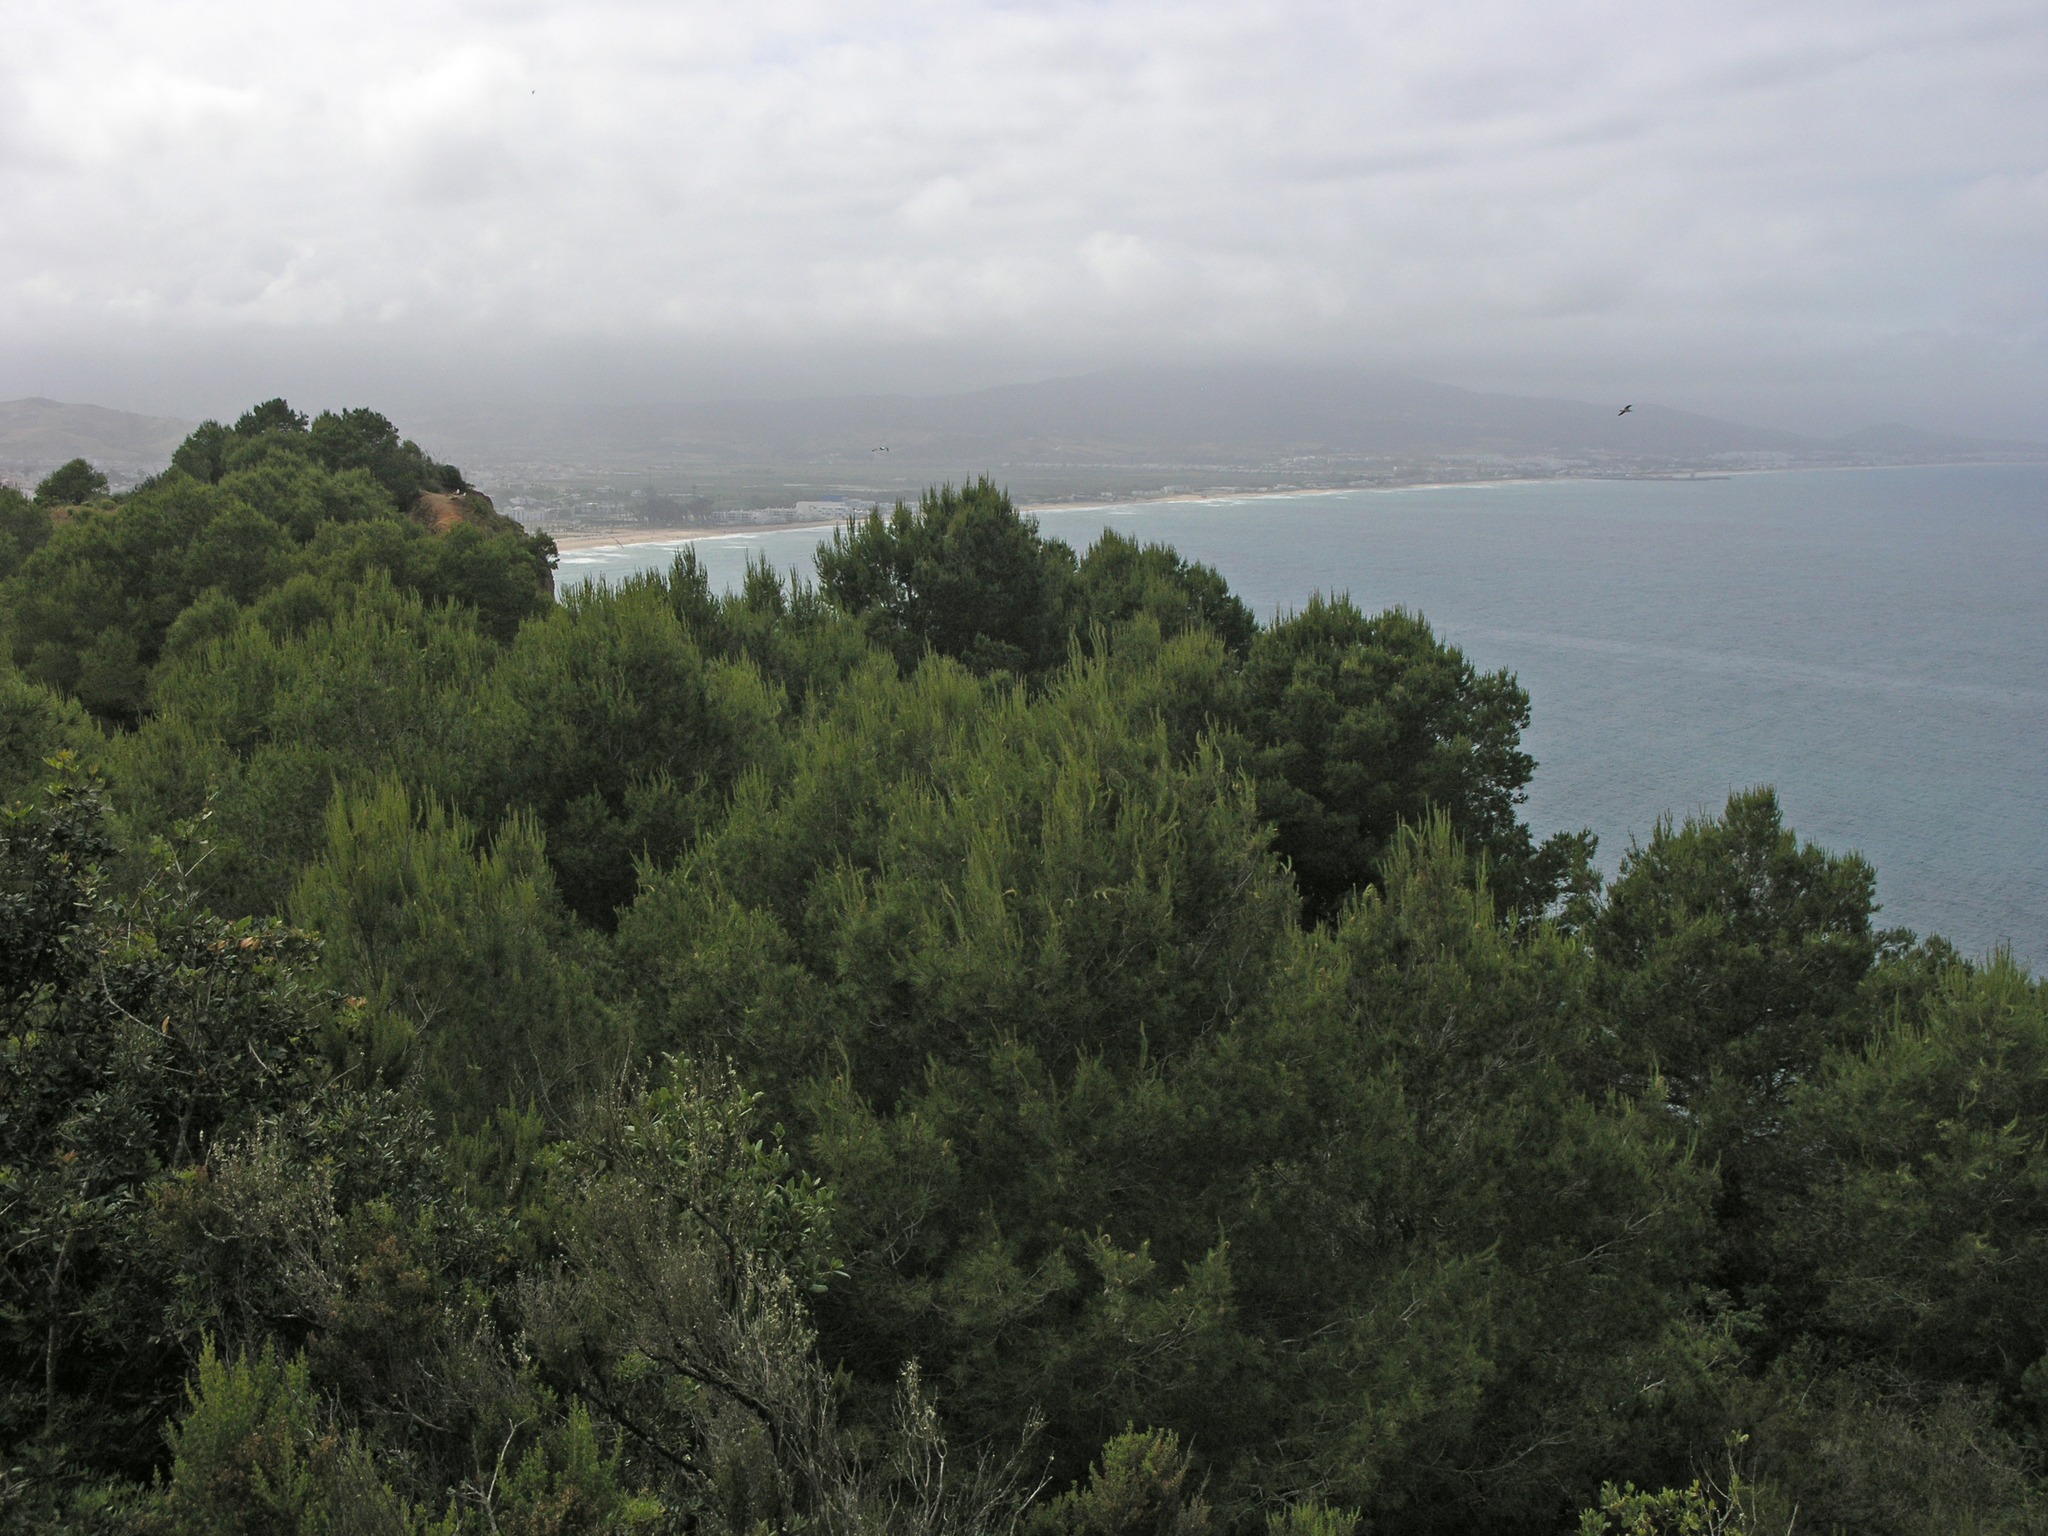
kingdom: Plantae
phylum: Tracheophyta
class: Pinopsida
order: Pinales
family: Pinaceae
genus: Pinus
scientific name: Pinus halepensis
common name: Aleppo pine
